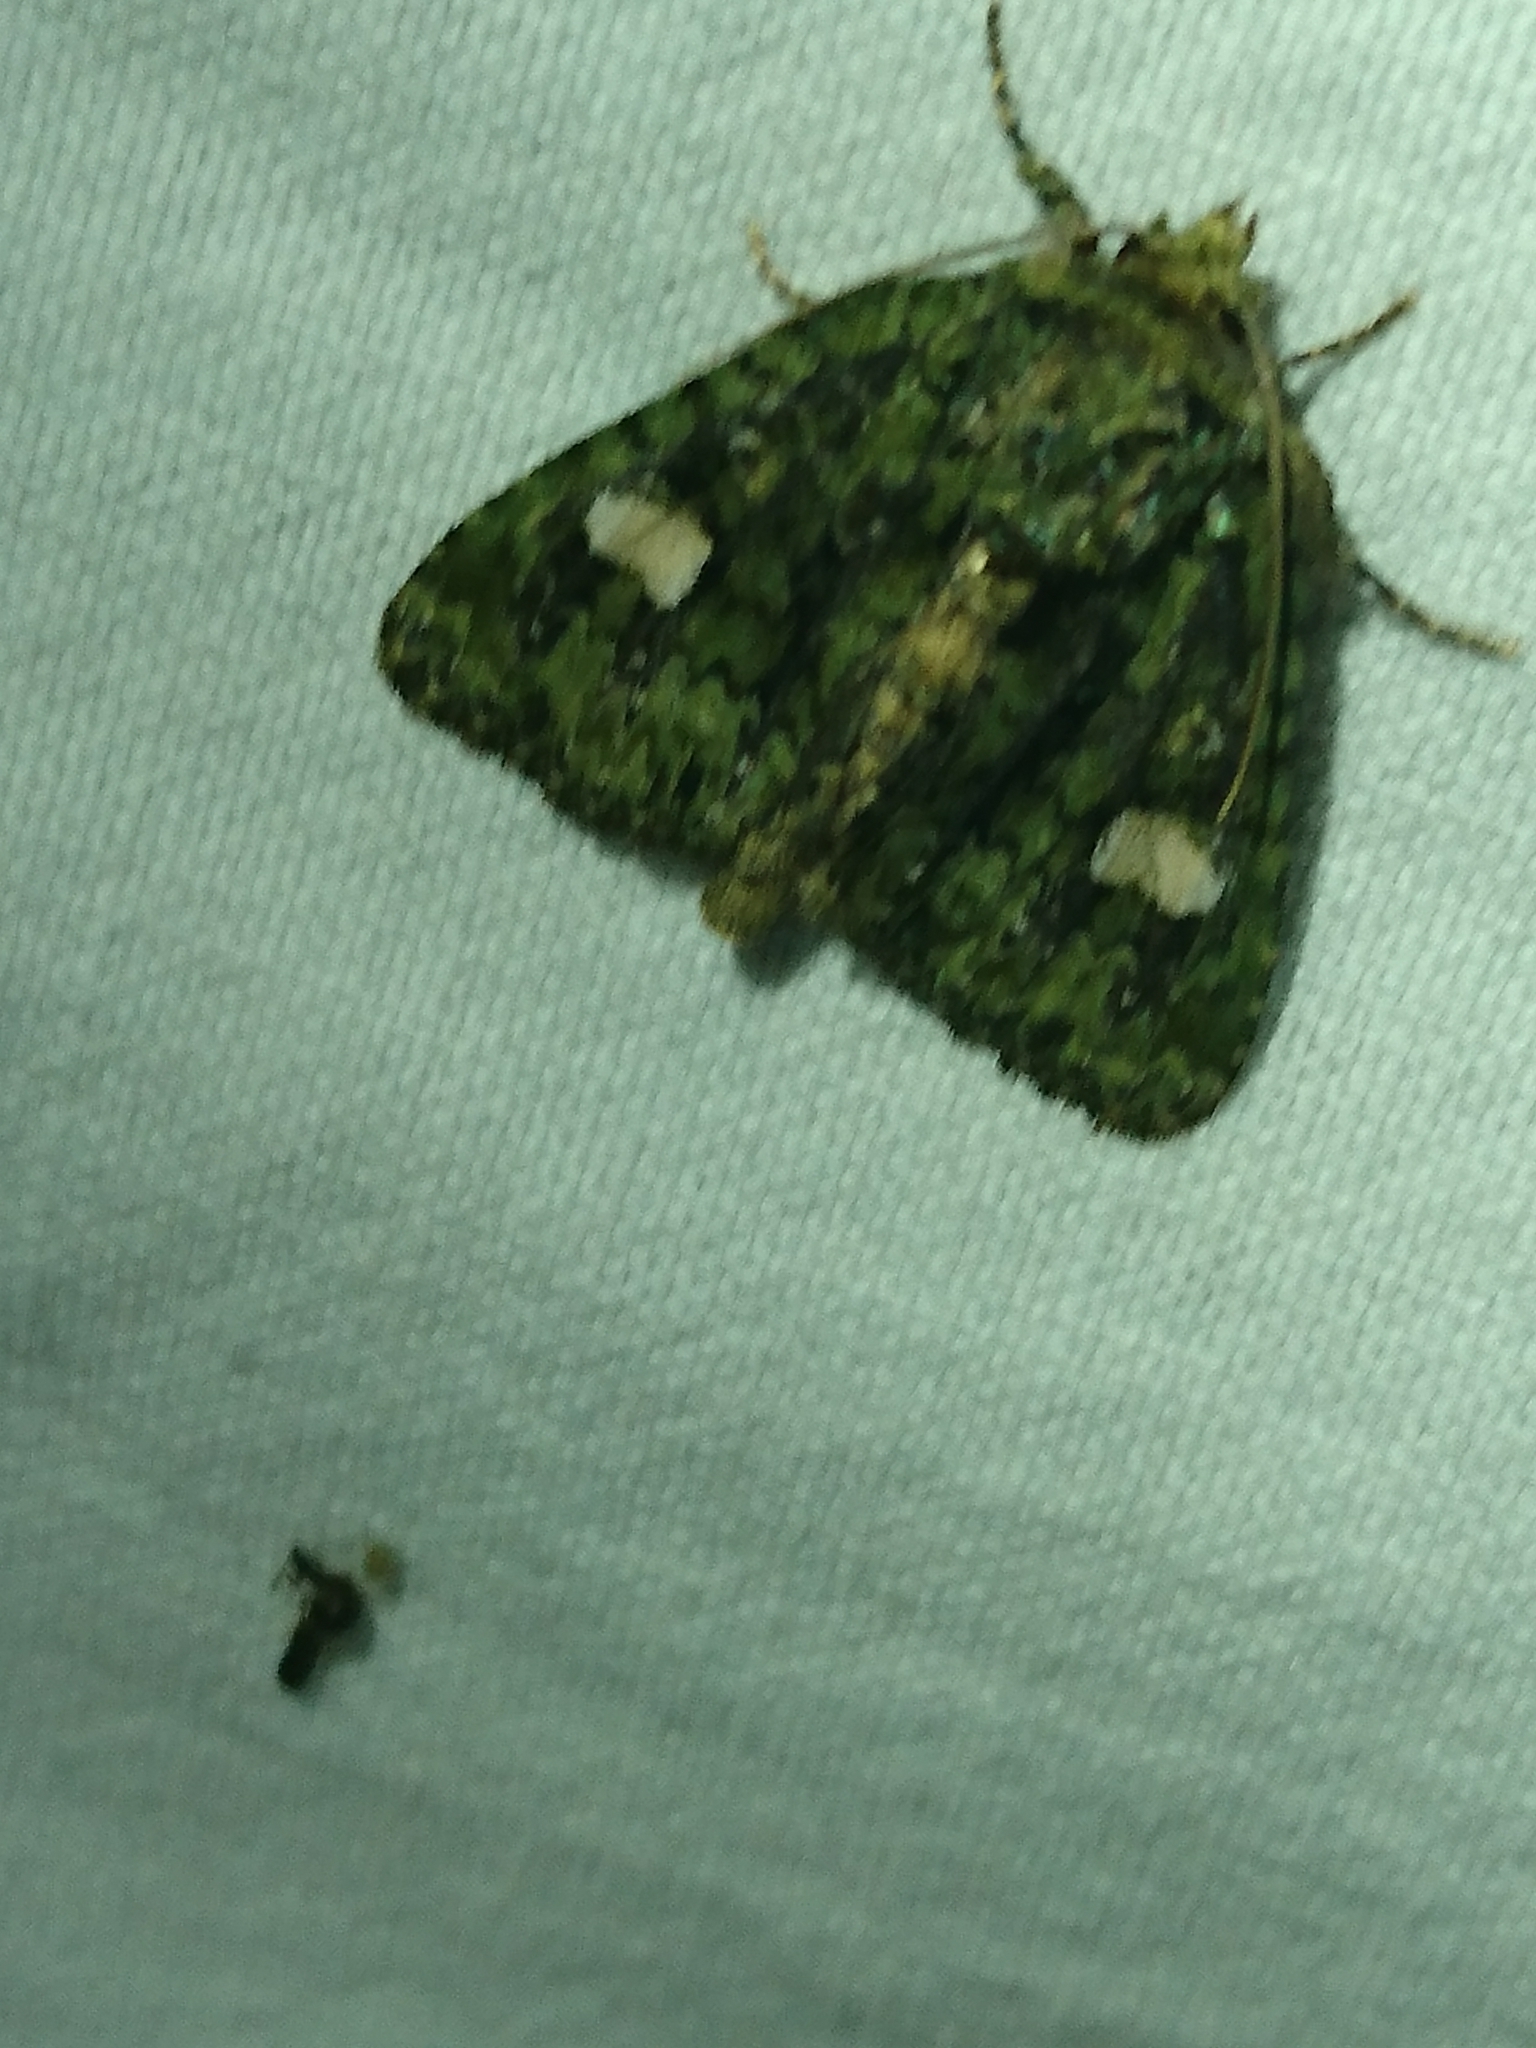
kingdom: Animalia
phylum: Arthropoda
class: Insecta
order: Lepidoptera
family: Noctuidae
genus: Phosphila
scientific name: Phosphila miselioides
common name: Spotted phosphila moth
